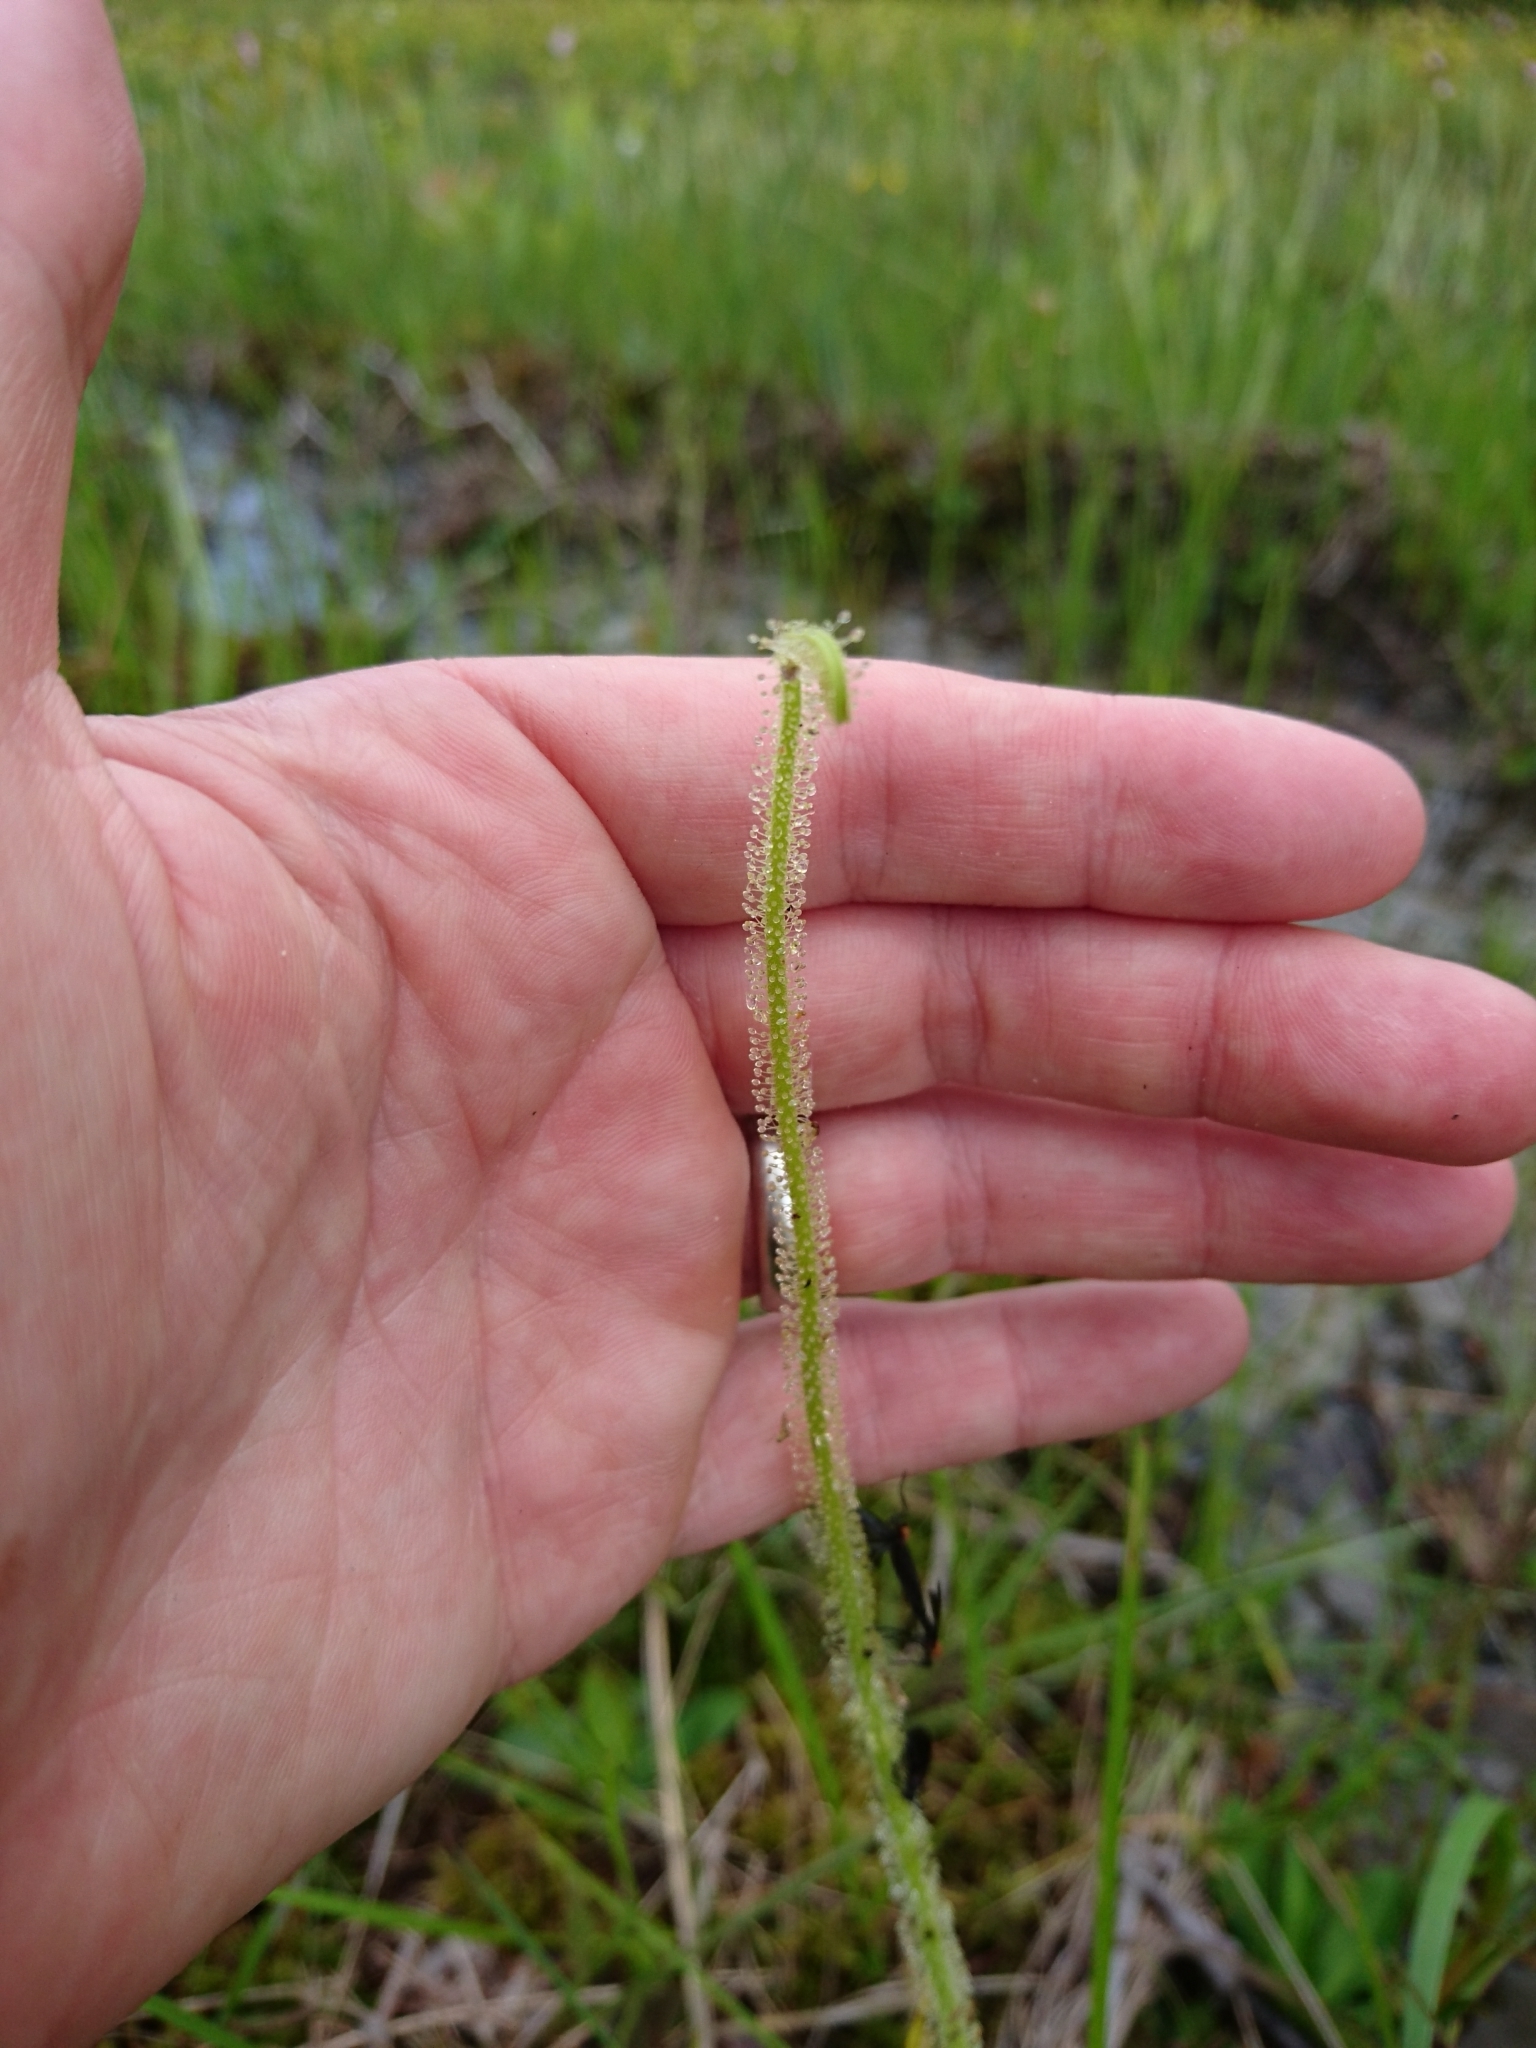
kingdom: Plantae
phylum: Tracheophyta
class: Magnoliopsida
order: Caryophyllales
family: Droseraceae
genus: Drosera
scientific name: Drosera filiformis
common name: Dew-thread
